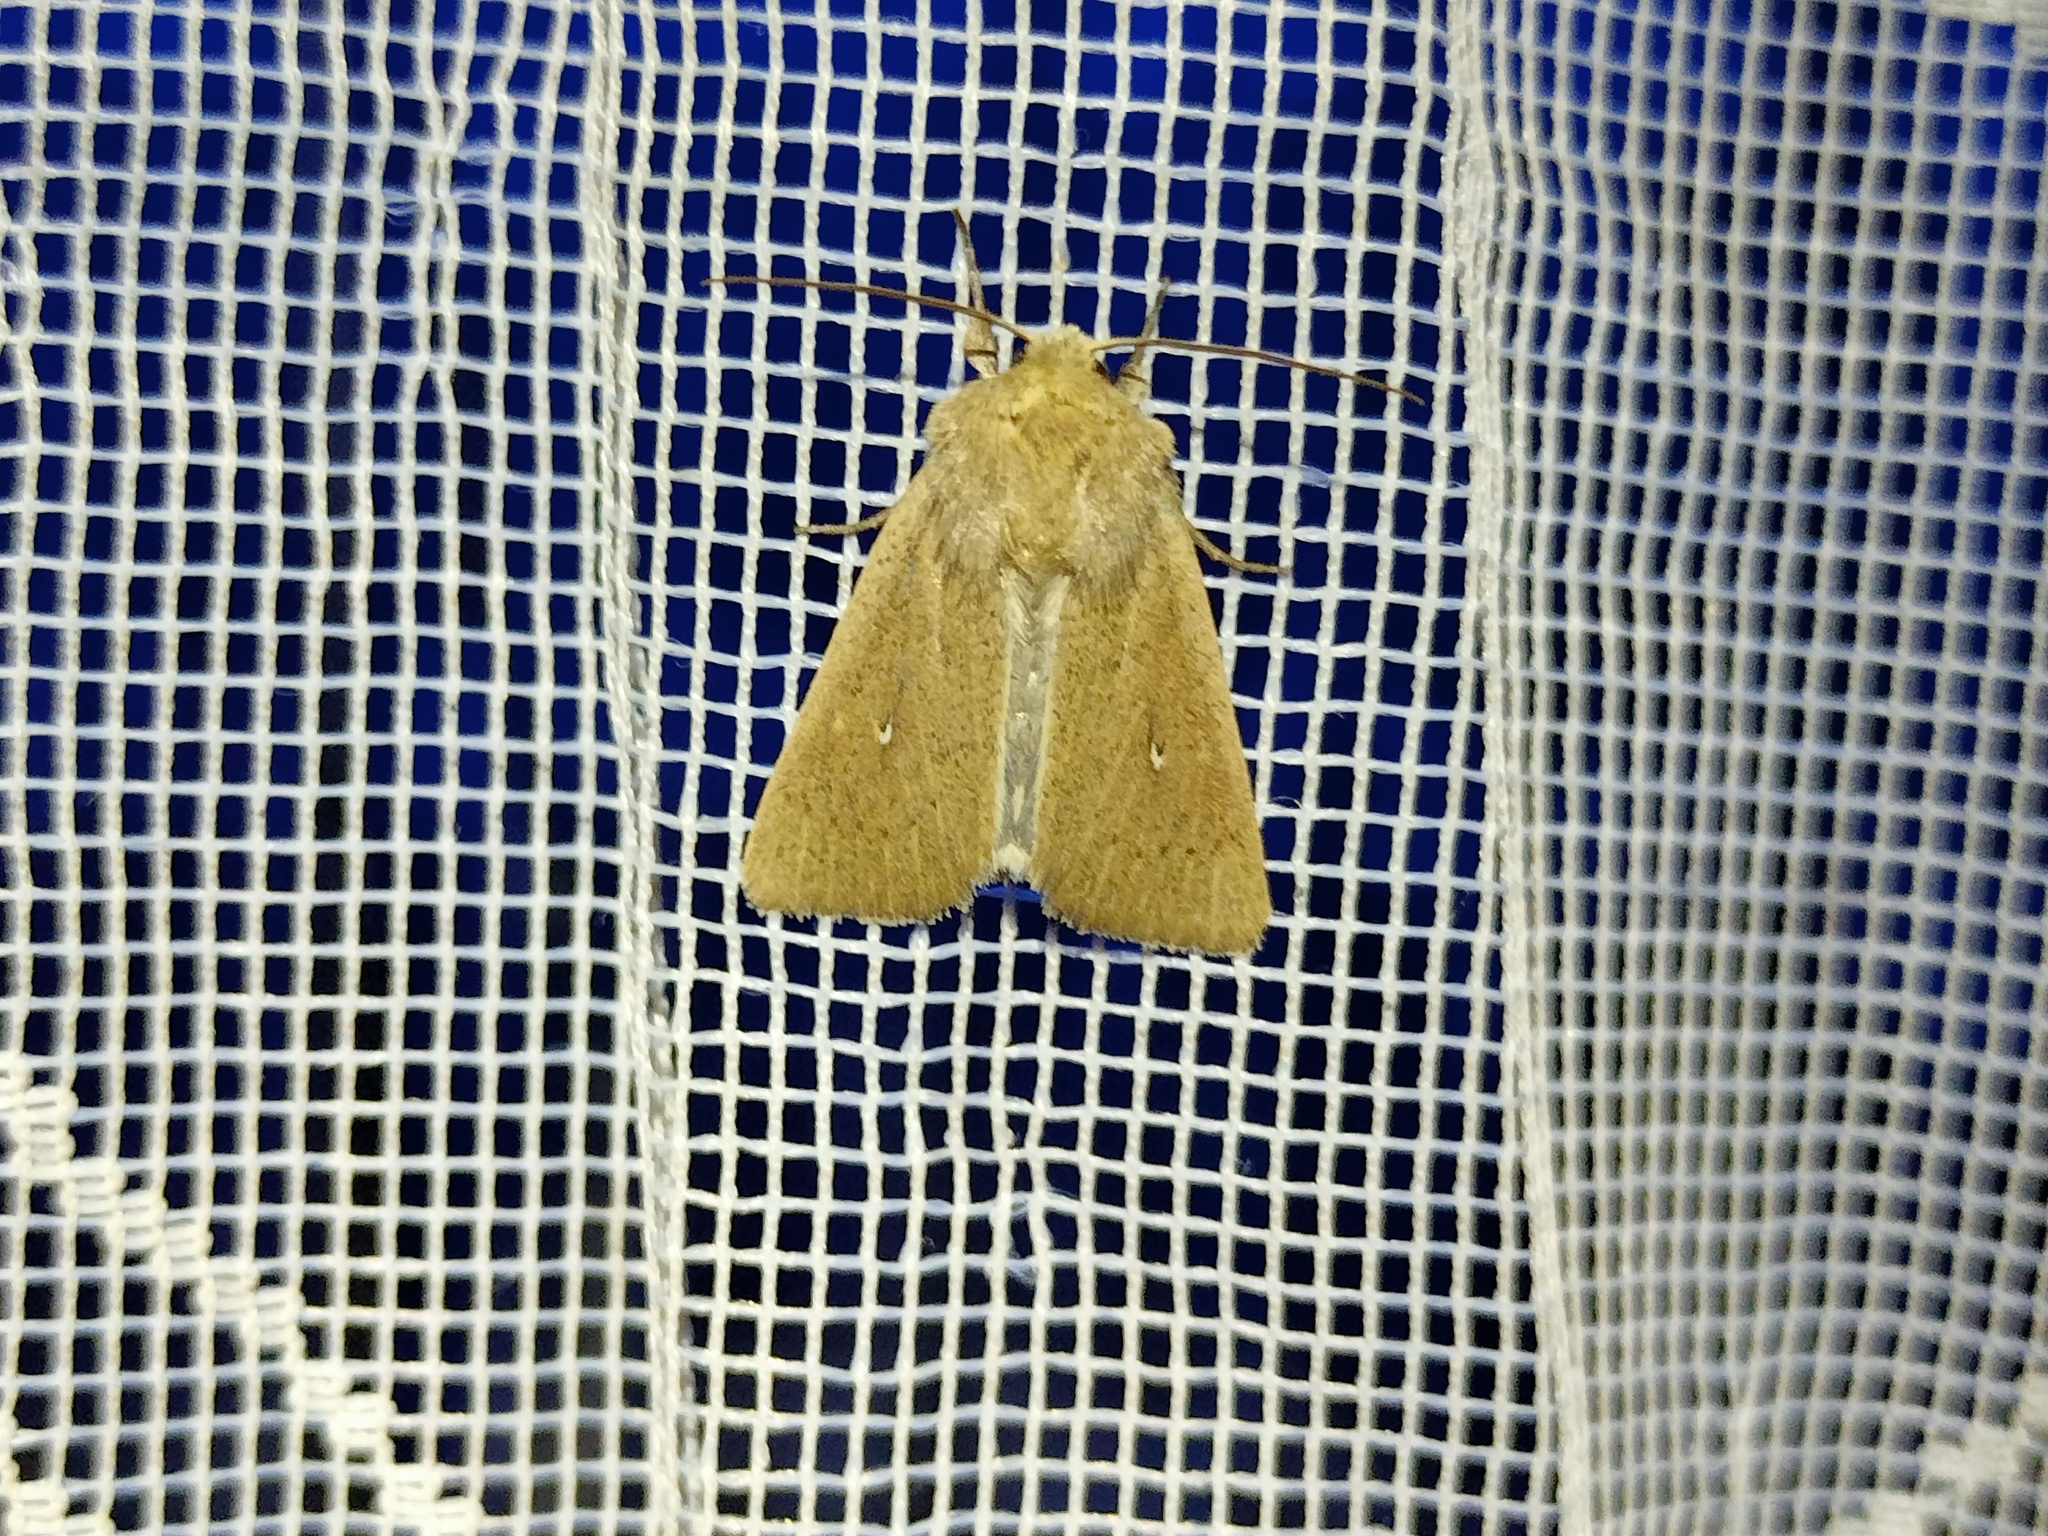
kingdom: Animalia
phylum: Arthropoda
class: Insecta
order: Lepidoptera
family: Noctuidae
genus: Mythimna
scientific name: Mythimna sicula
